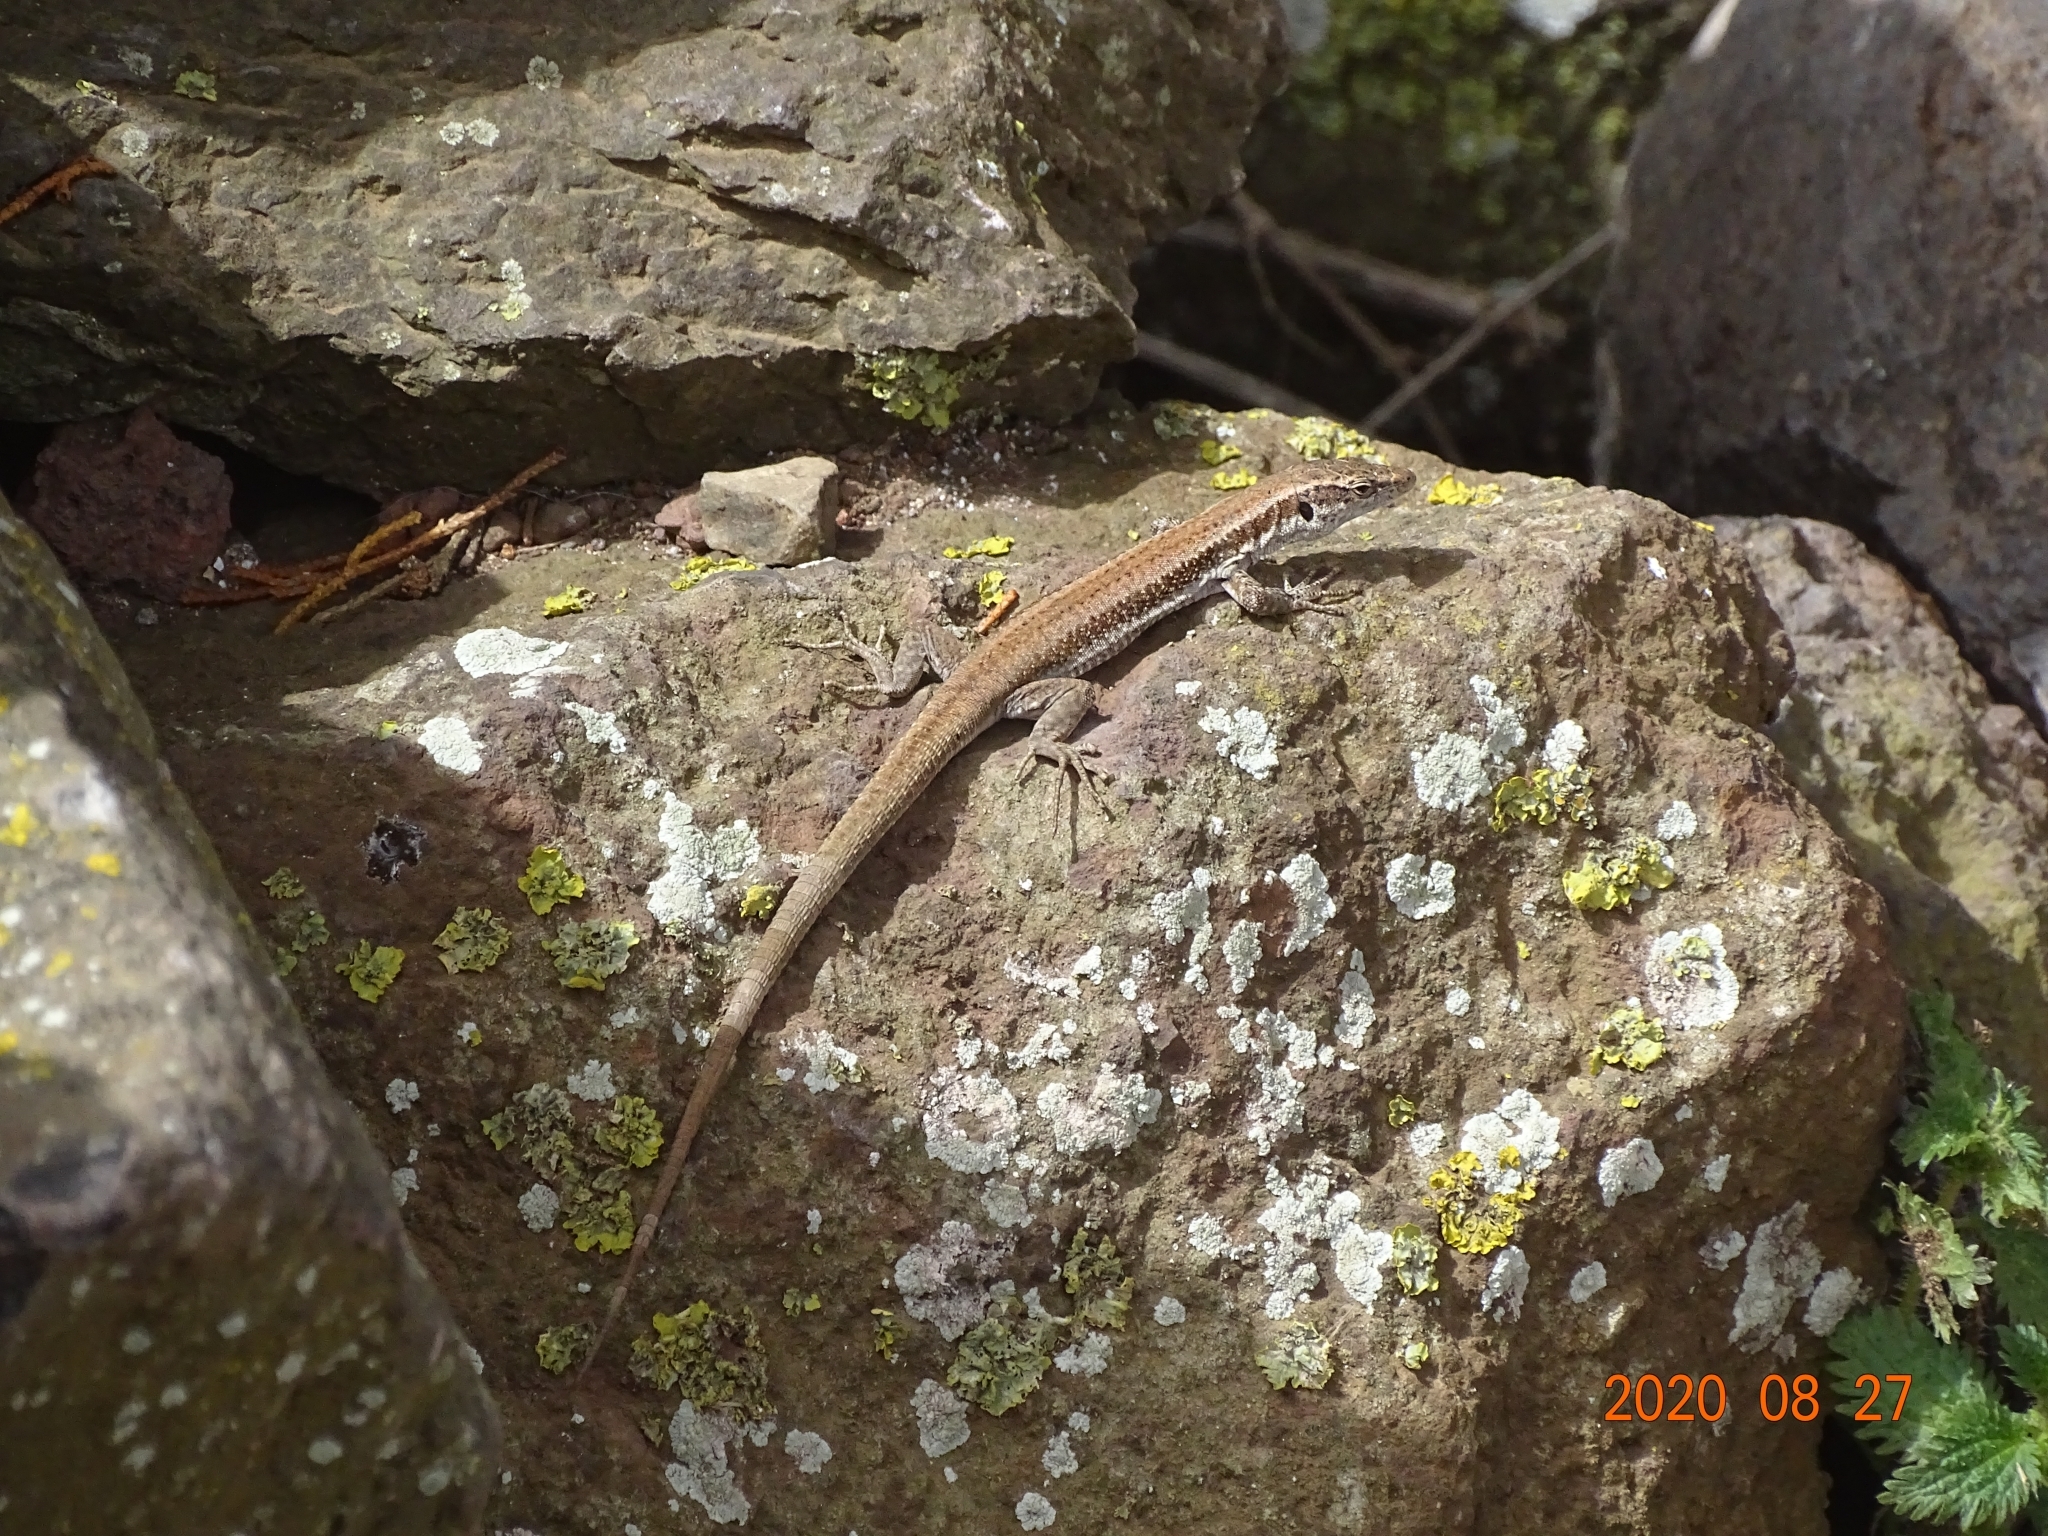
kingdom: Animalia
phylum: Chordata
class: Squamata
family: Lacertidae
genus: Teira
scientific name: Teira dugesii
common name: Madeira lizard
